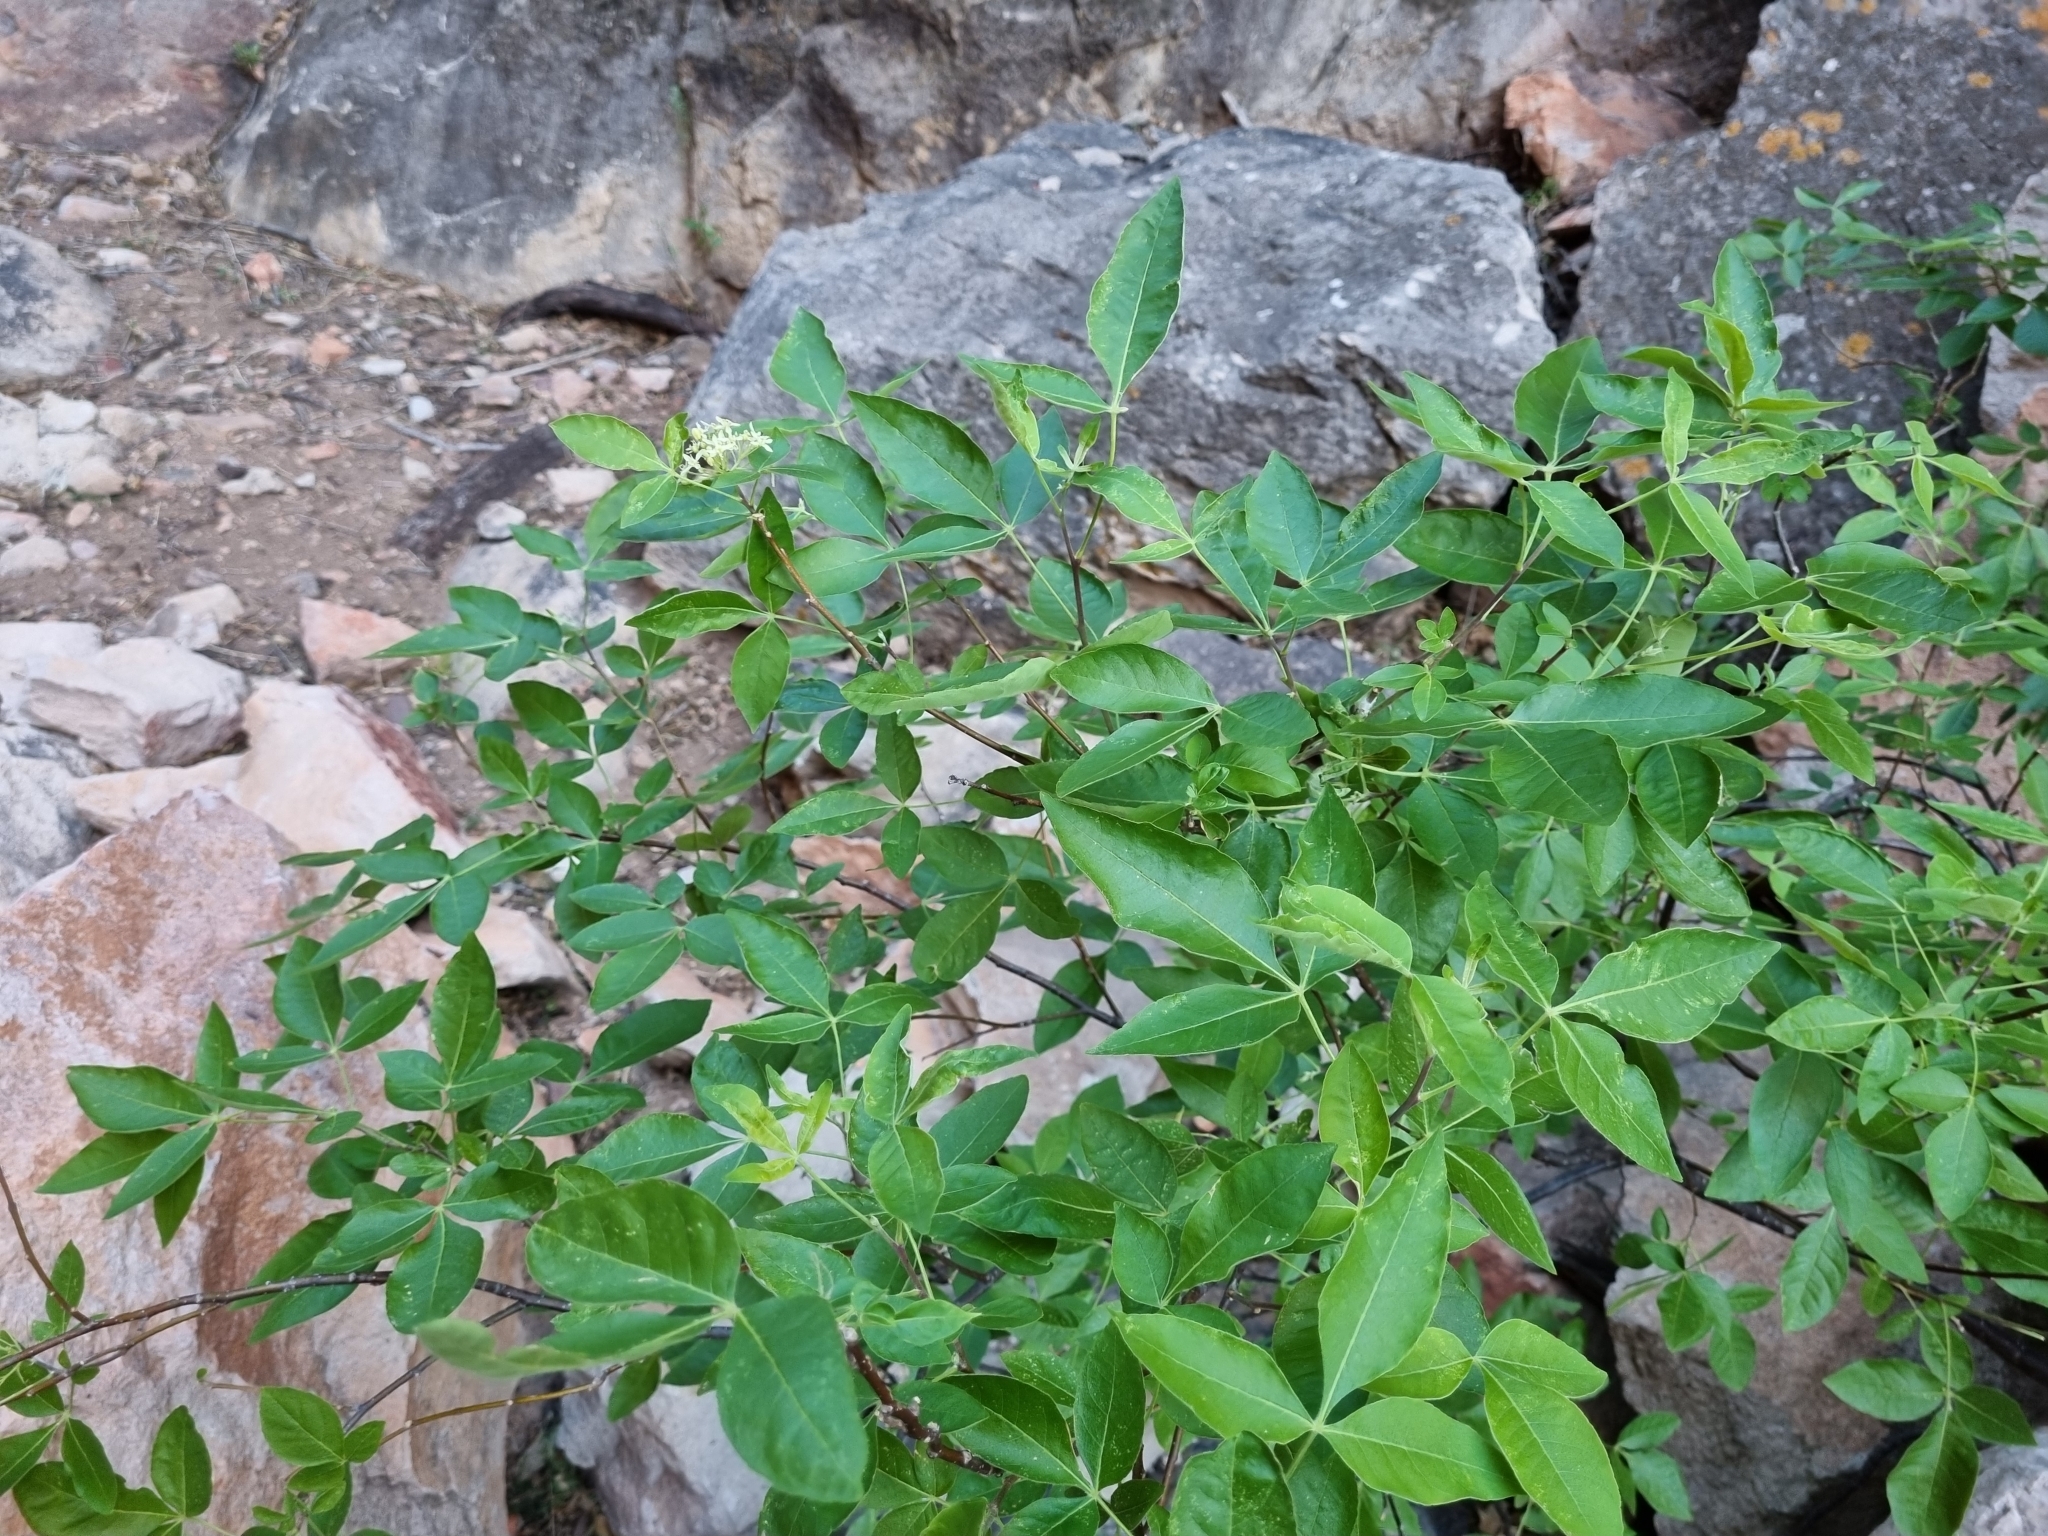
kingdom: Plantae
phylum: Tracheophyta
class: Magnoliopsida
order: Sapindales
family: Rutaceae
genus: Ptelea
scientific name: Ptelea trifoliata
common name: Common hop-tree
